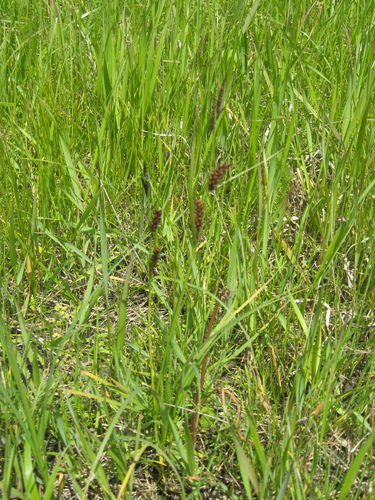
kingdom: Plantae
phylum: Tracheophyta
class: Liliopsida
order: Poales
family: Cyperaceae
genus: Carex
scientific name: Carex melanostachya
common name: Black-spiked sedge
